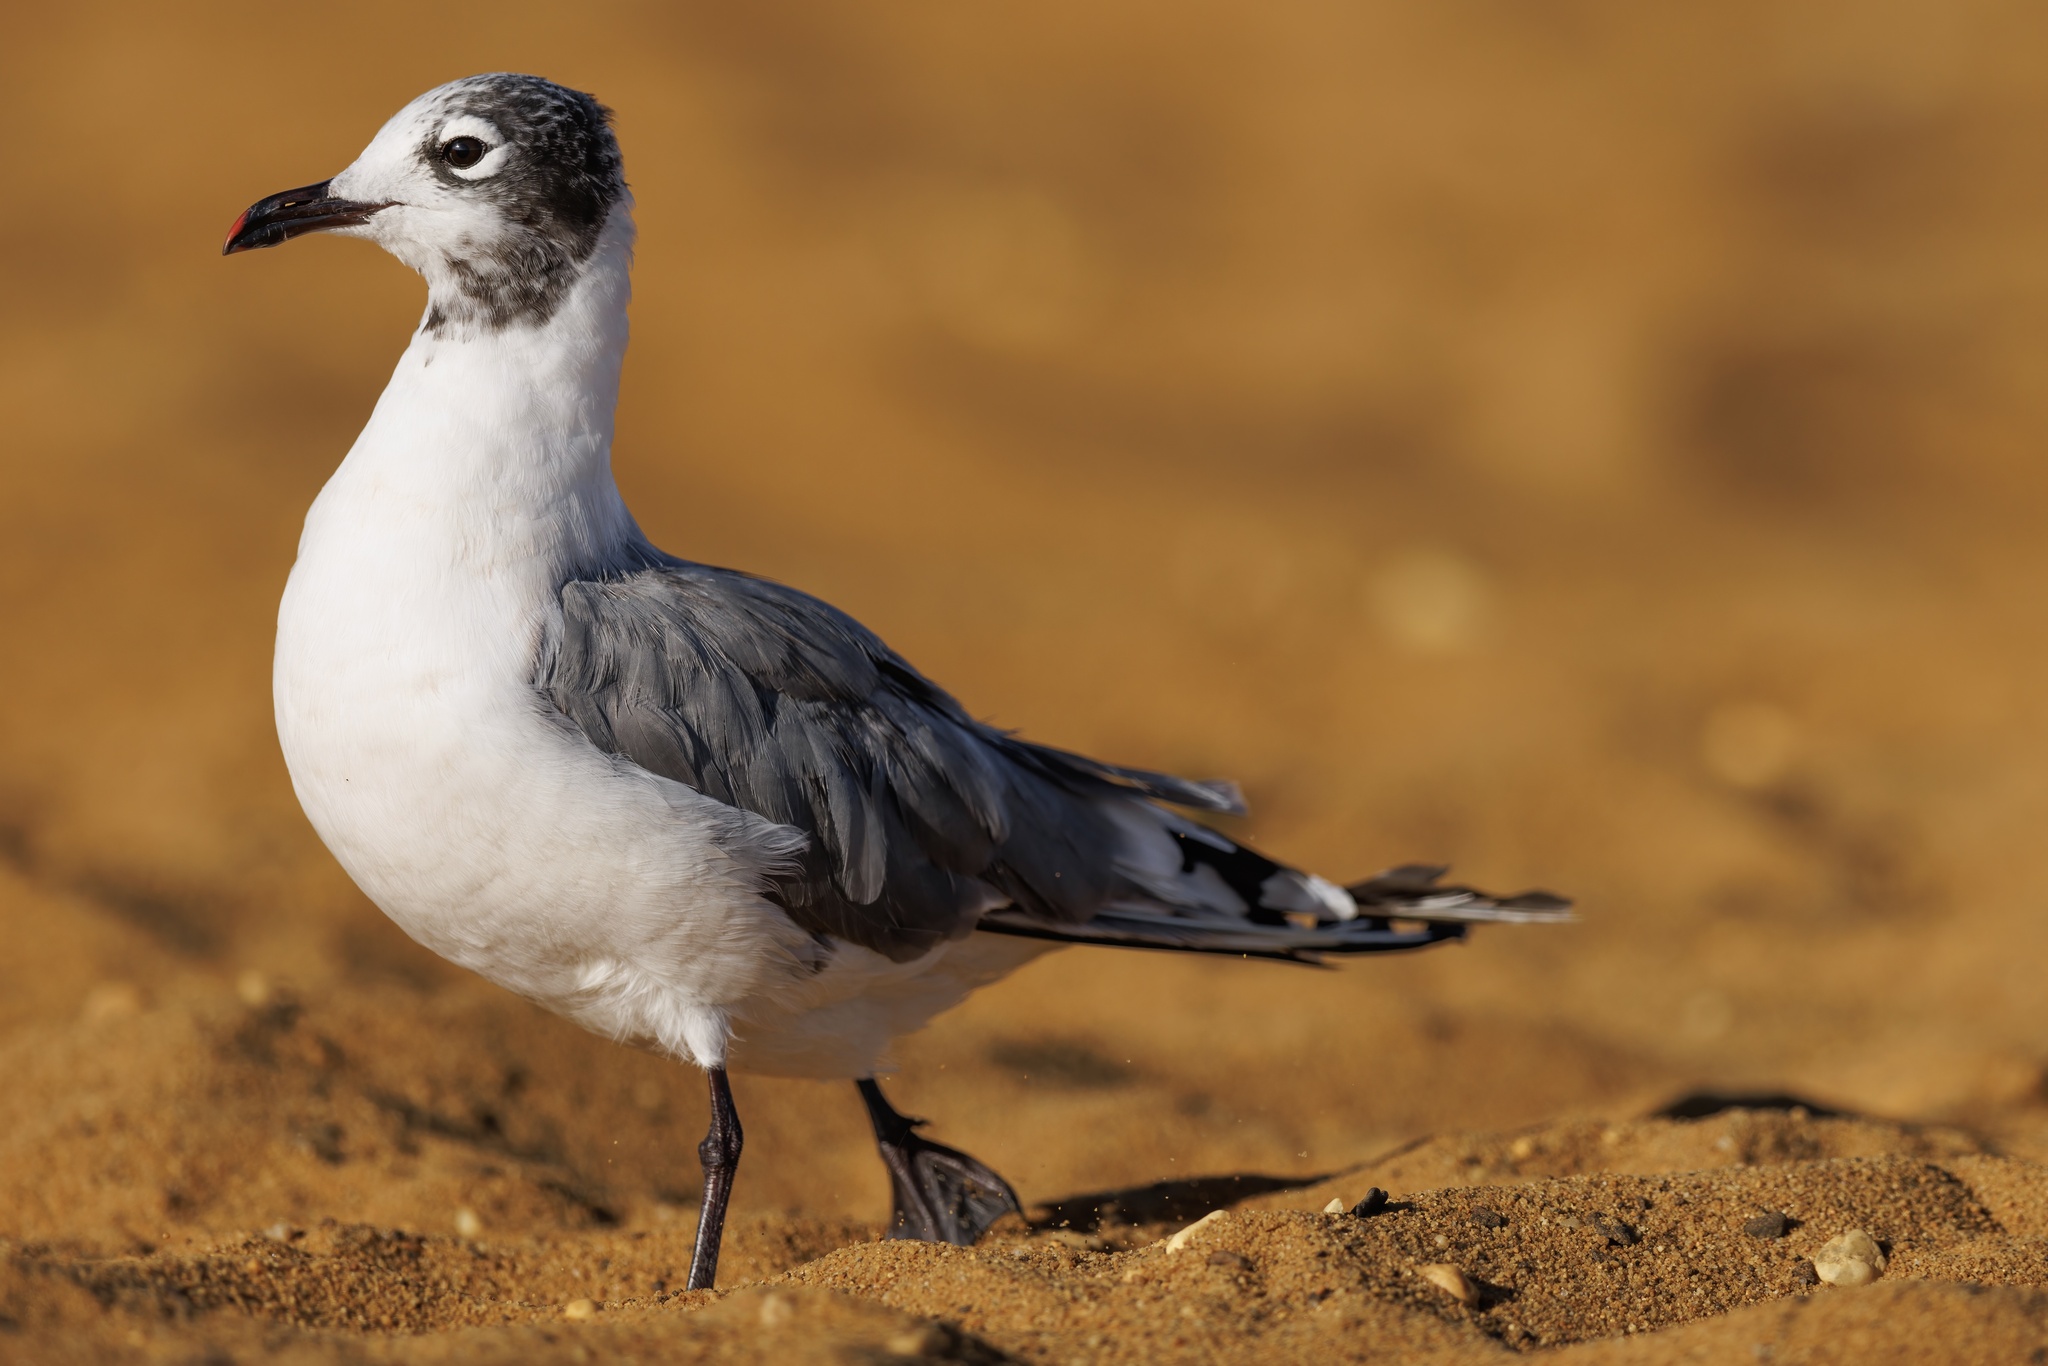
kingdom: Animalia
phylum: Chordata
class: Aves
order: Charadriiformes
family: Laridae
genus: Leucophaeus
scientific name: Leucophaeus pipixcan
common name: Franklin's gull
